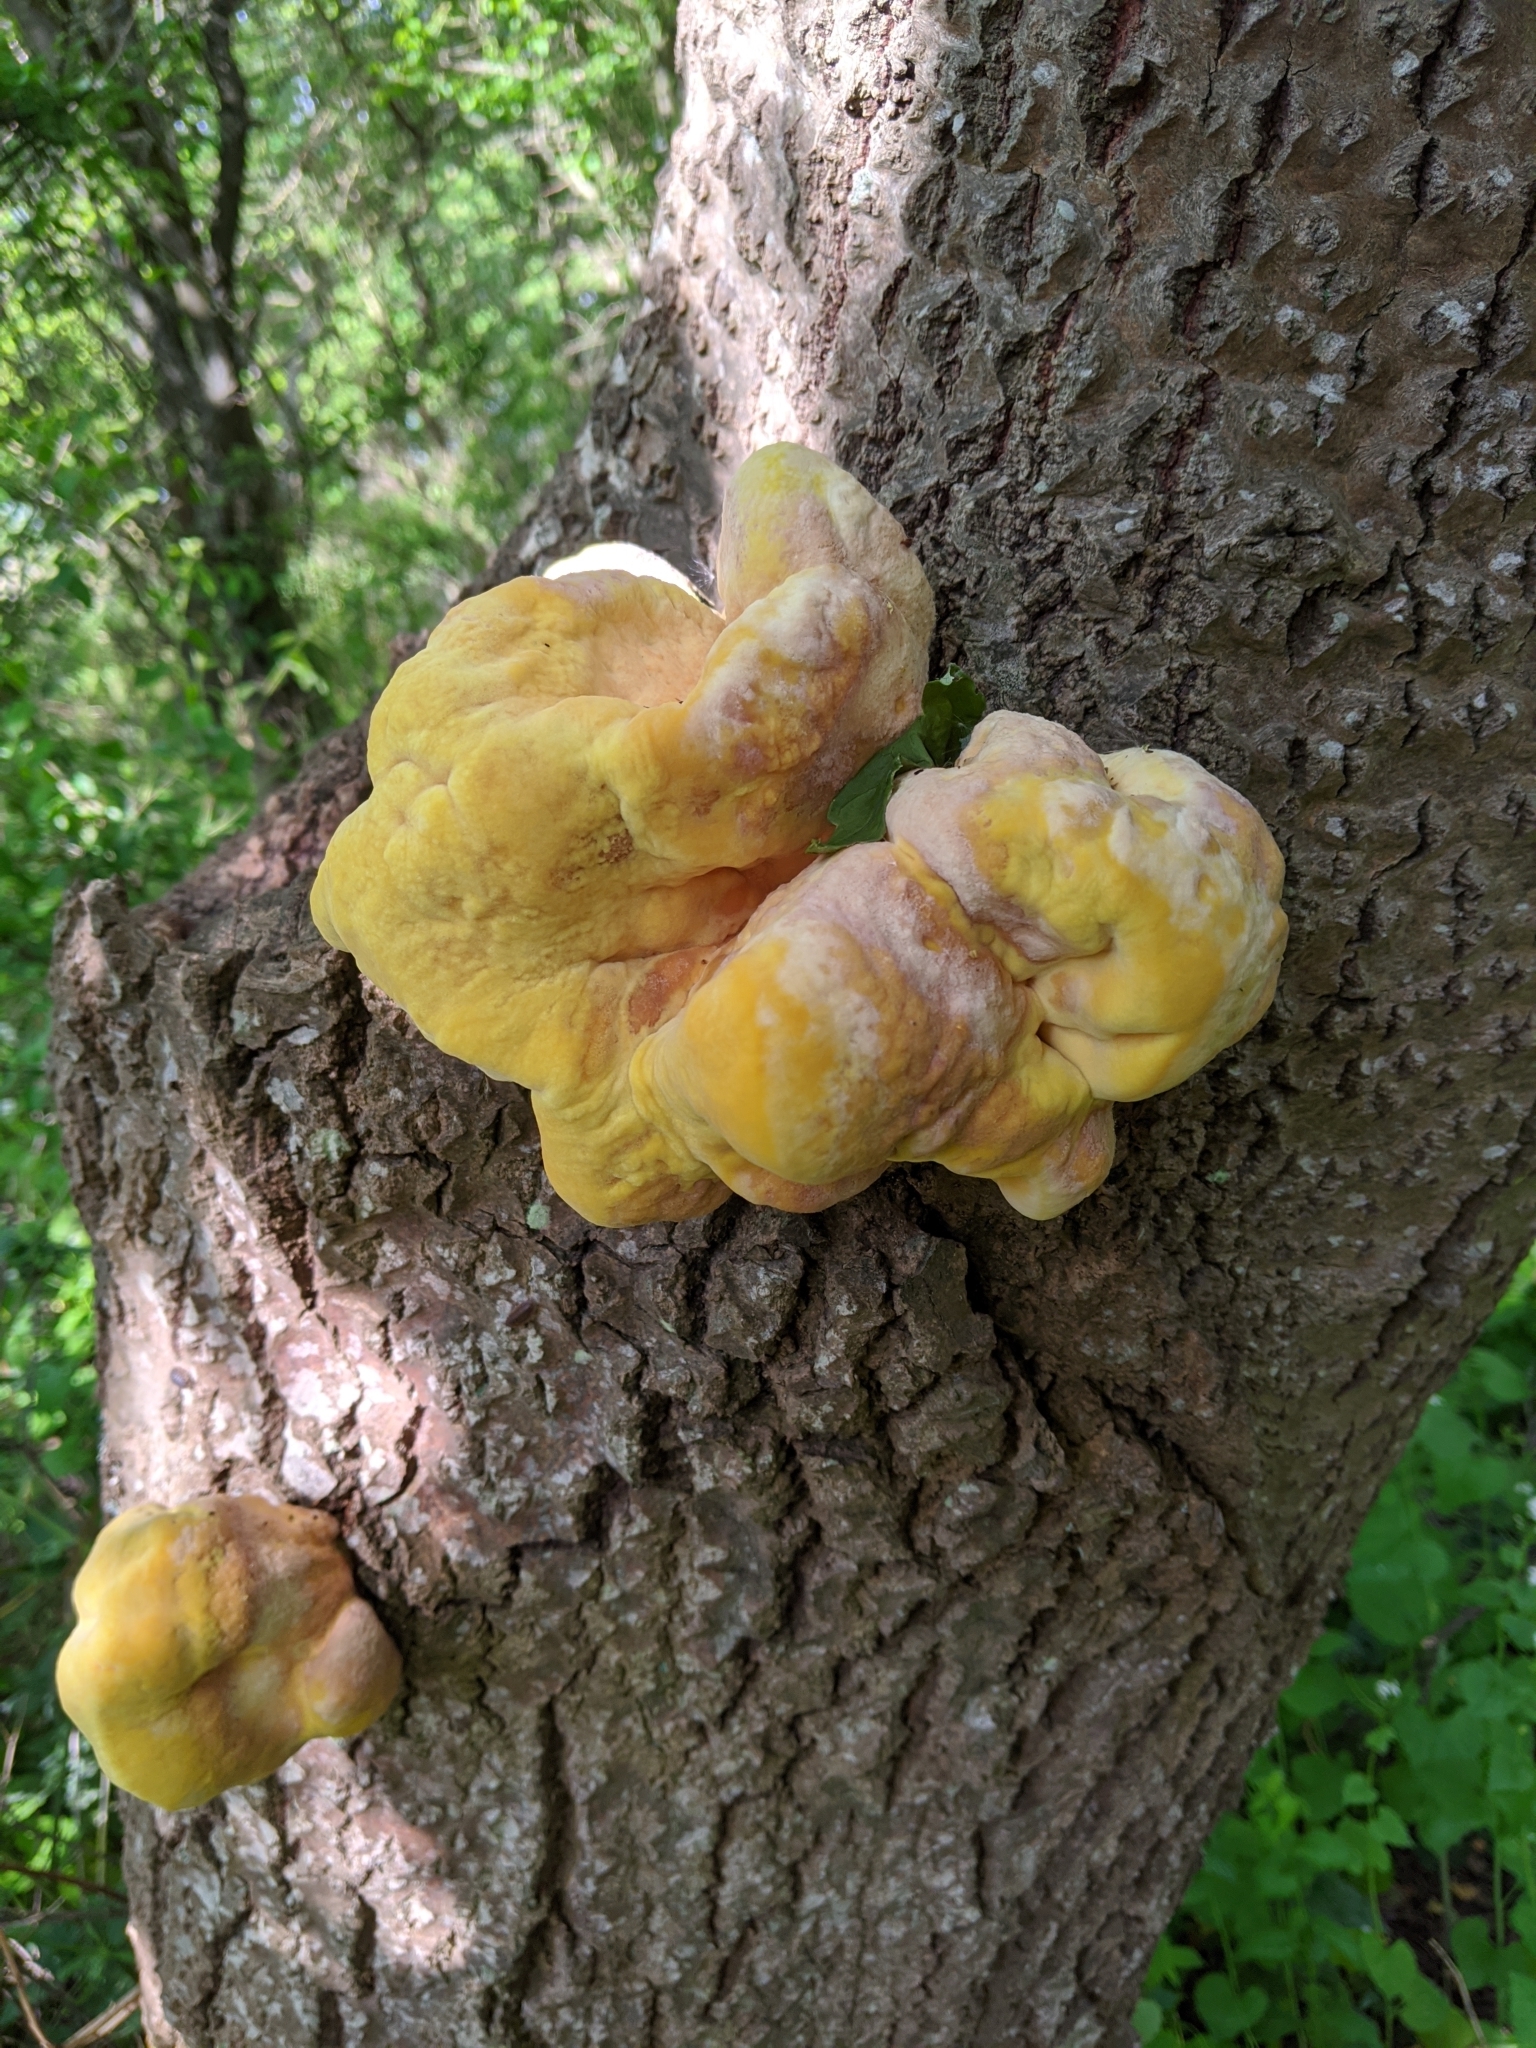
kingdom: Fungi
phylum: Basidiomycota
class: Agaricomycetes
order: Polyporales
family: Laetiporaceae
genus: Laetiporus
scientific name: Laetiporus sulphureus
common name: Chicken of the woods
